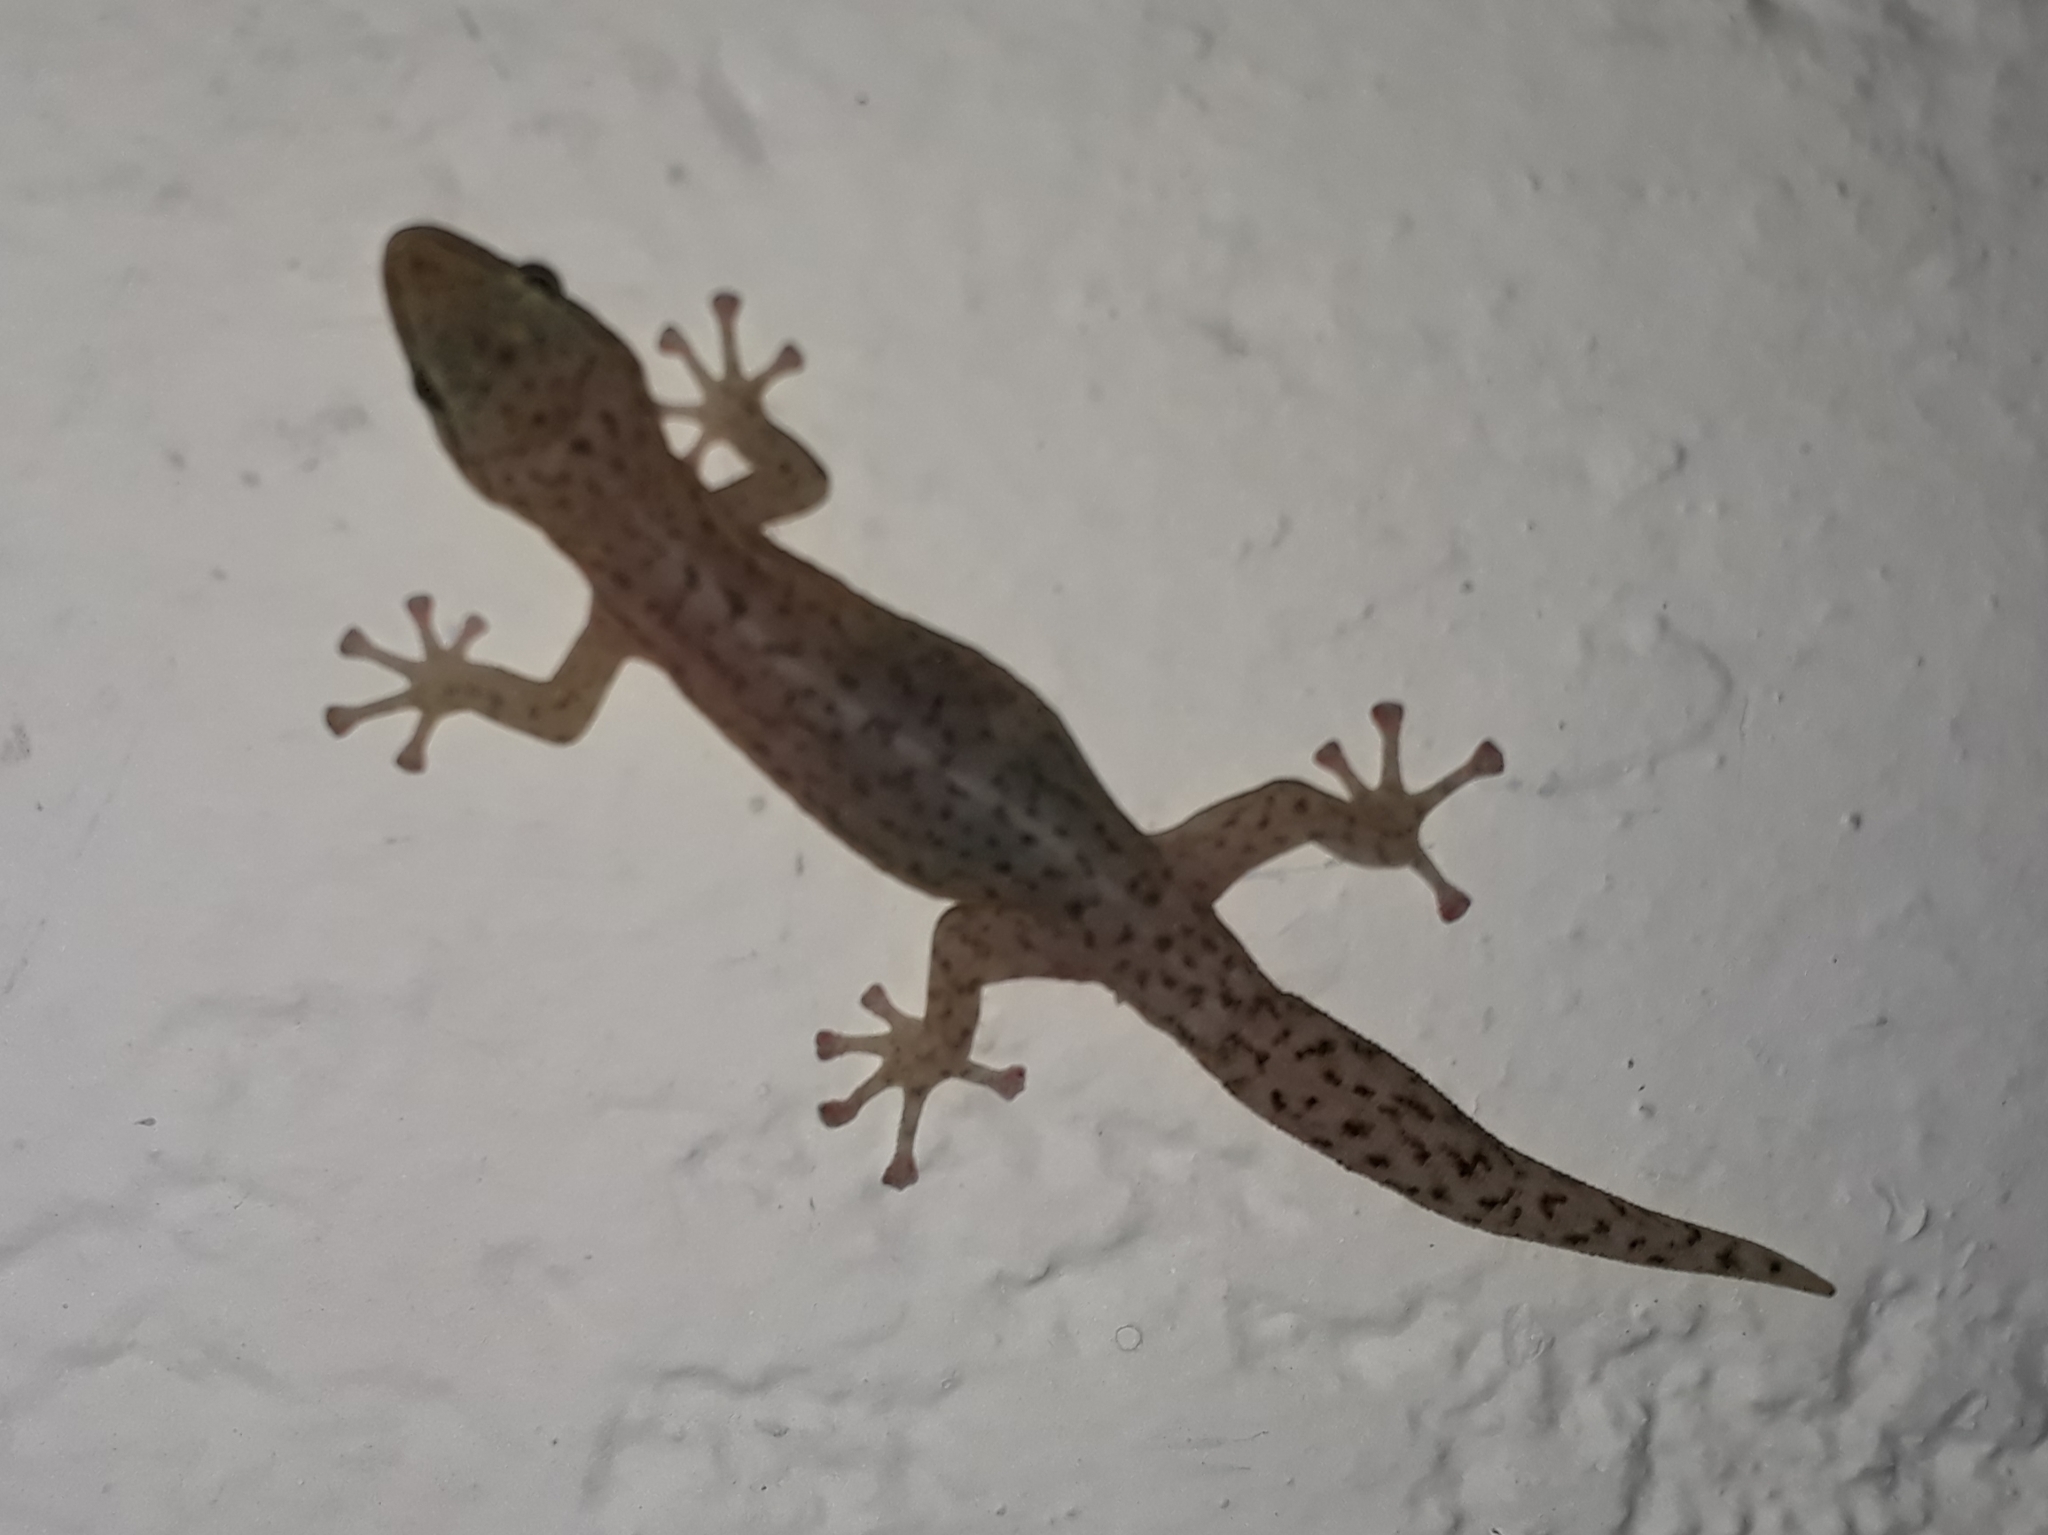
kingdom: Animalia
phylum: Chordata
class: Squamata
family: Gekkonidae
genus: Afrogecko
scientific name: Afrogecko porphyreus
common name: Marbled leaf-toed gecko
